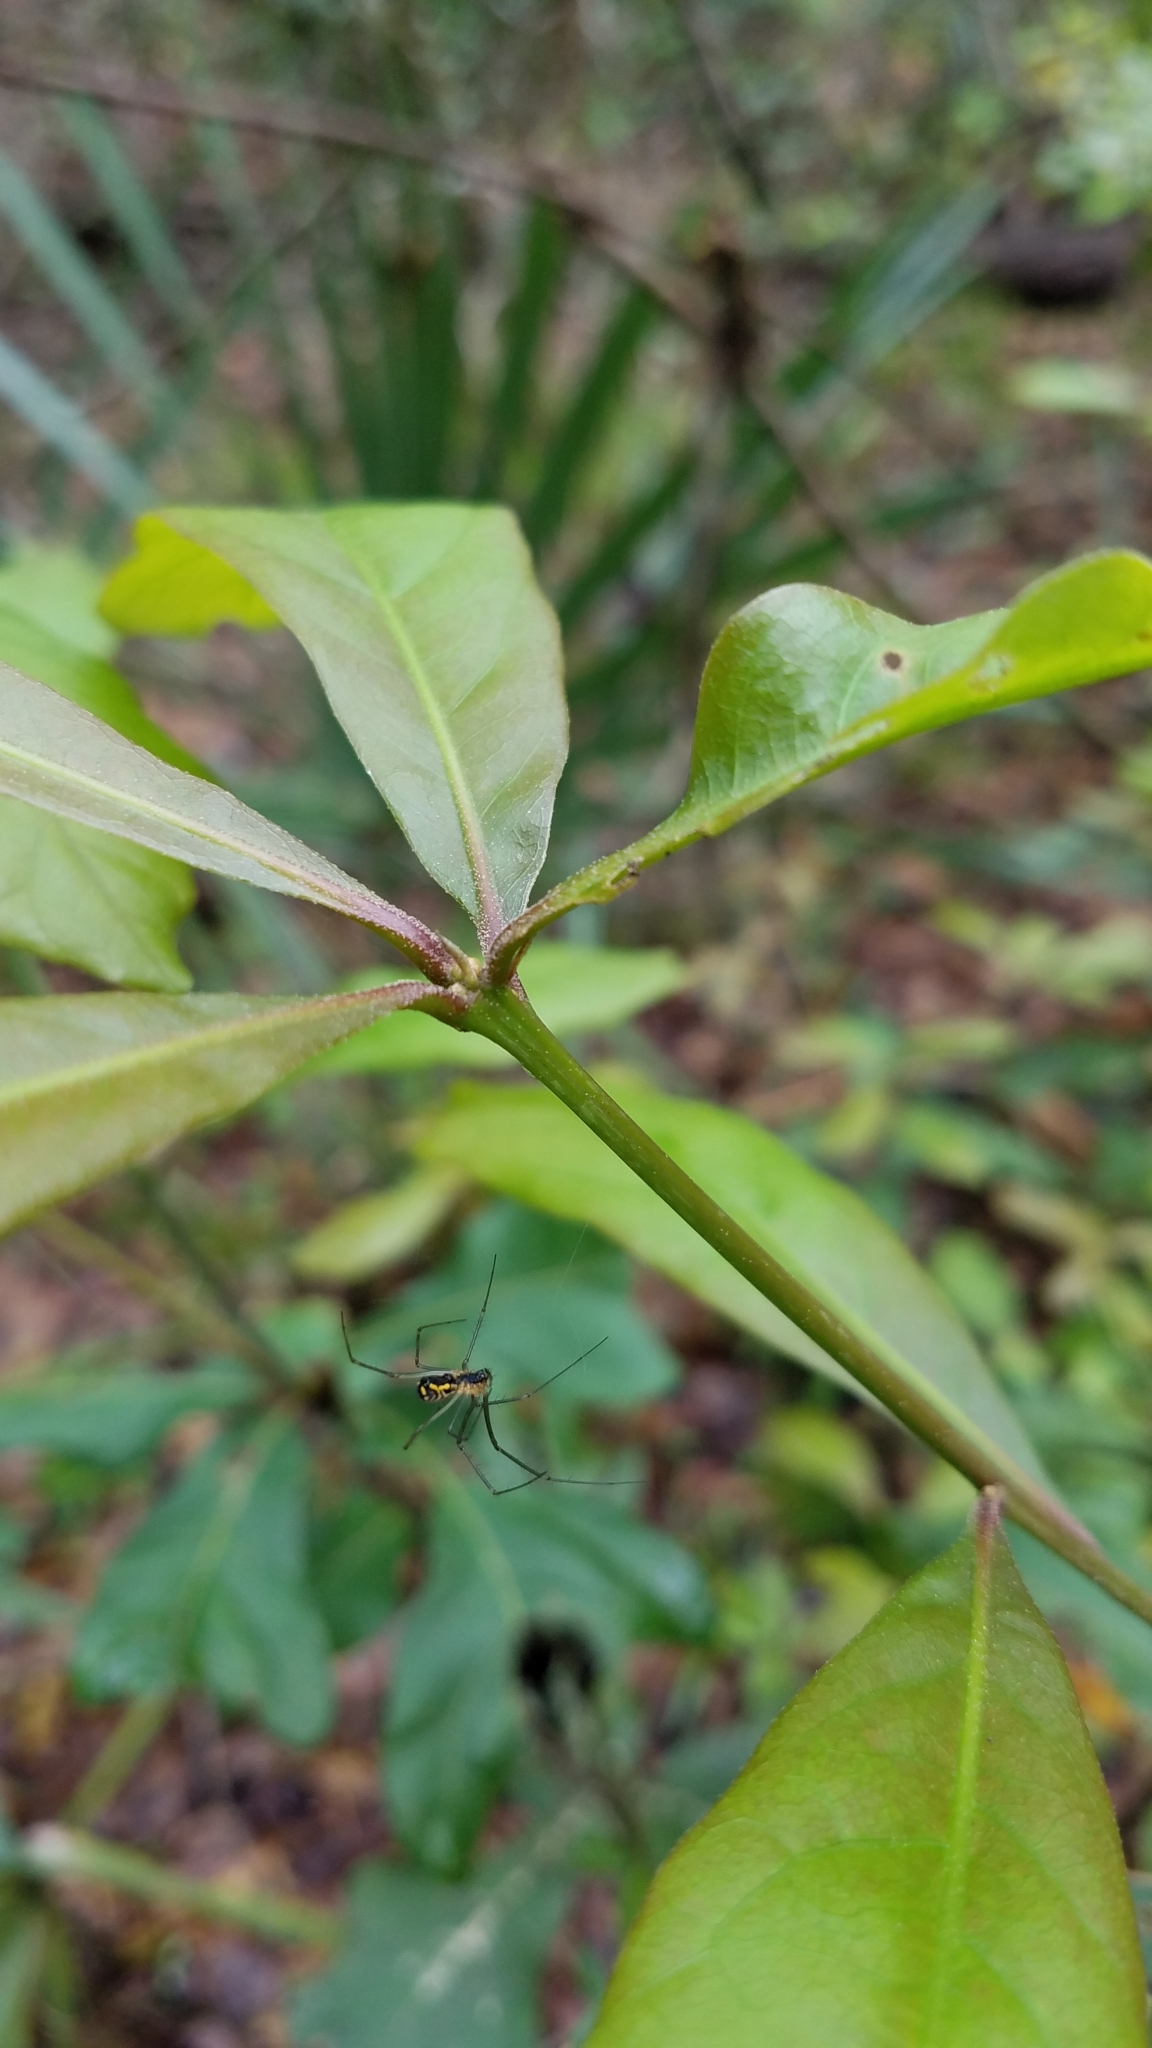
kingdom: Animalia
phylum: Arthropoda
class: Arachnida
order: Araneae
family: Linyphiidae
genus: Neriene
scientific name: Neriene radiata
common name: Filmy dome spider
